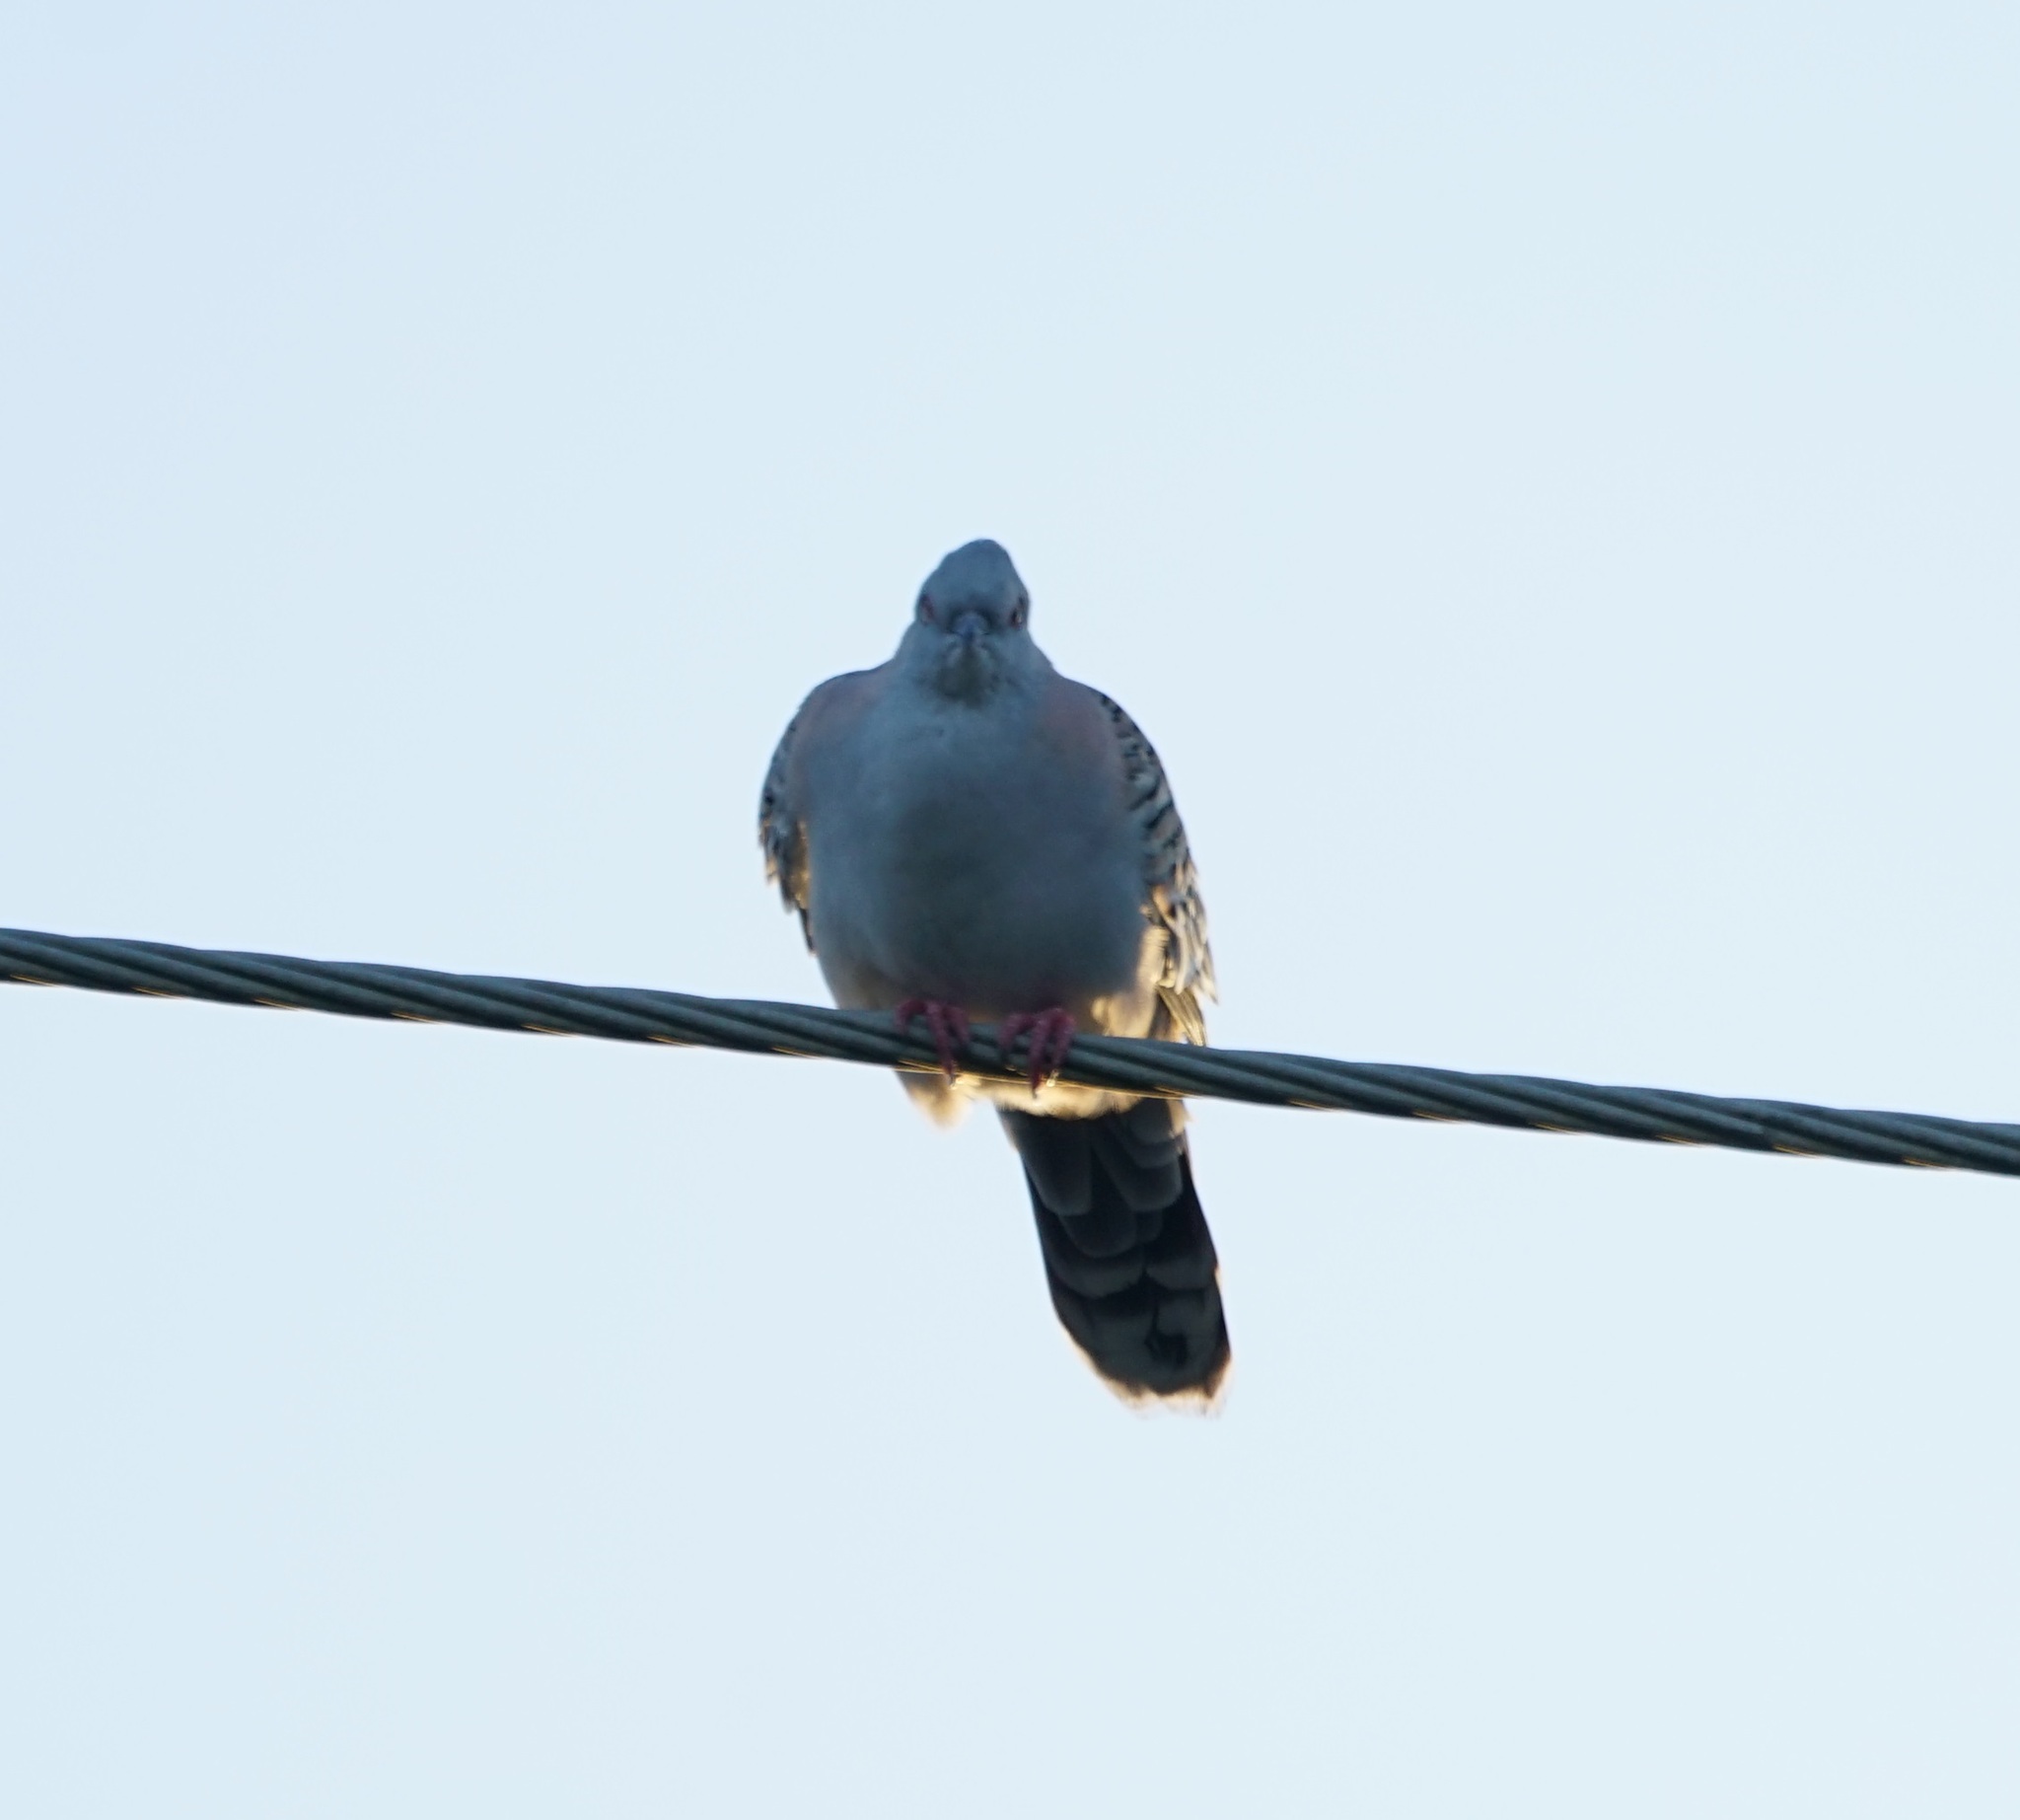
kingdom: Animalia
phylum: Chordata
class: Aves
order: Columbiformes
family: Columbidae
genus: Ocyphaps
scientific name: Ocyphaps lophotes
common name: Crested pigeon
